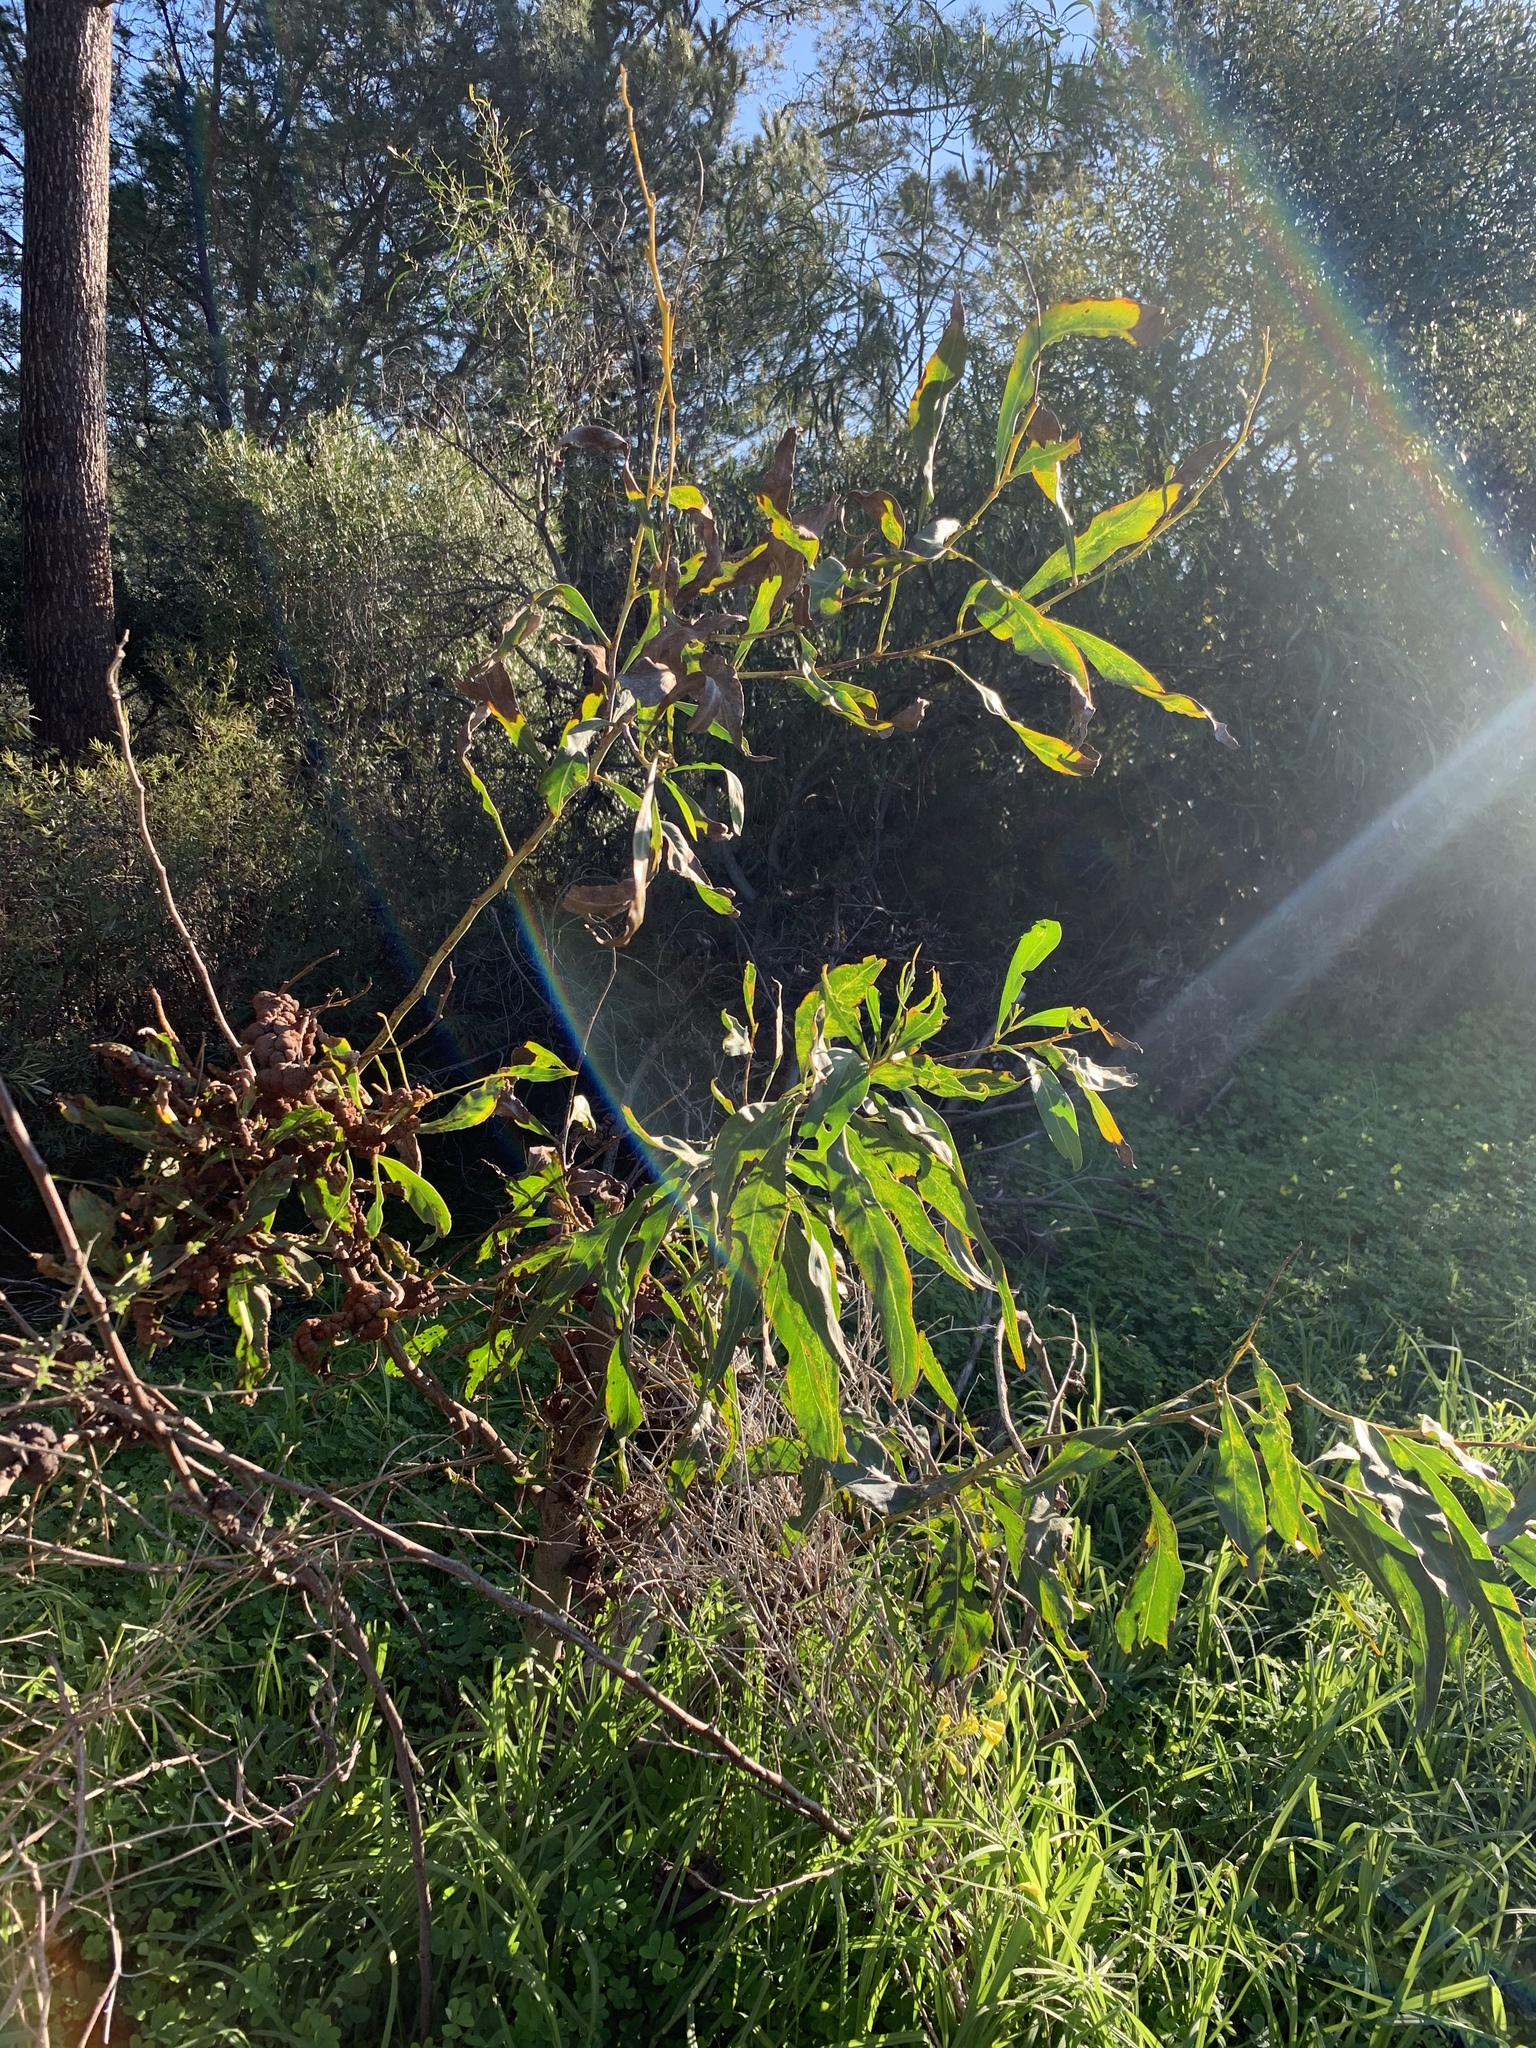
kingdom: Plantae
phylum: Tracheophyta
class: Magnoliopsida
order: Fabales
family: Fabaceae
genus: Acacia
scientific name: Acacia saligna
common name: Orange wattle
